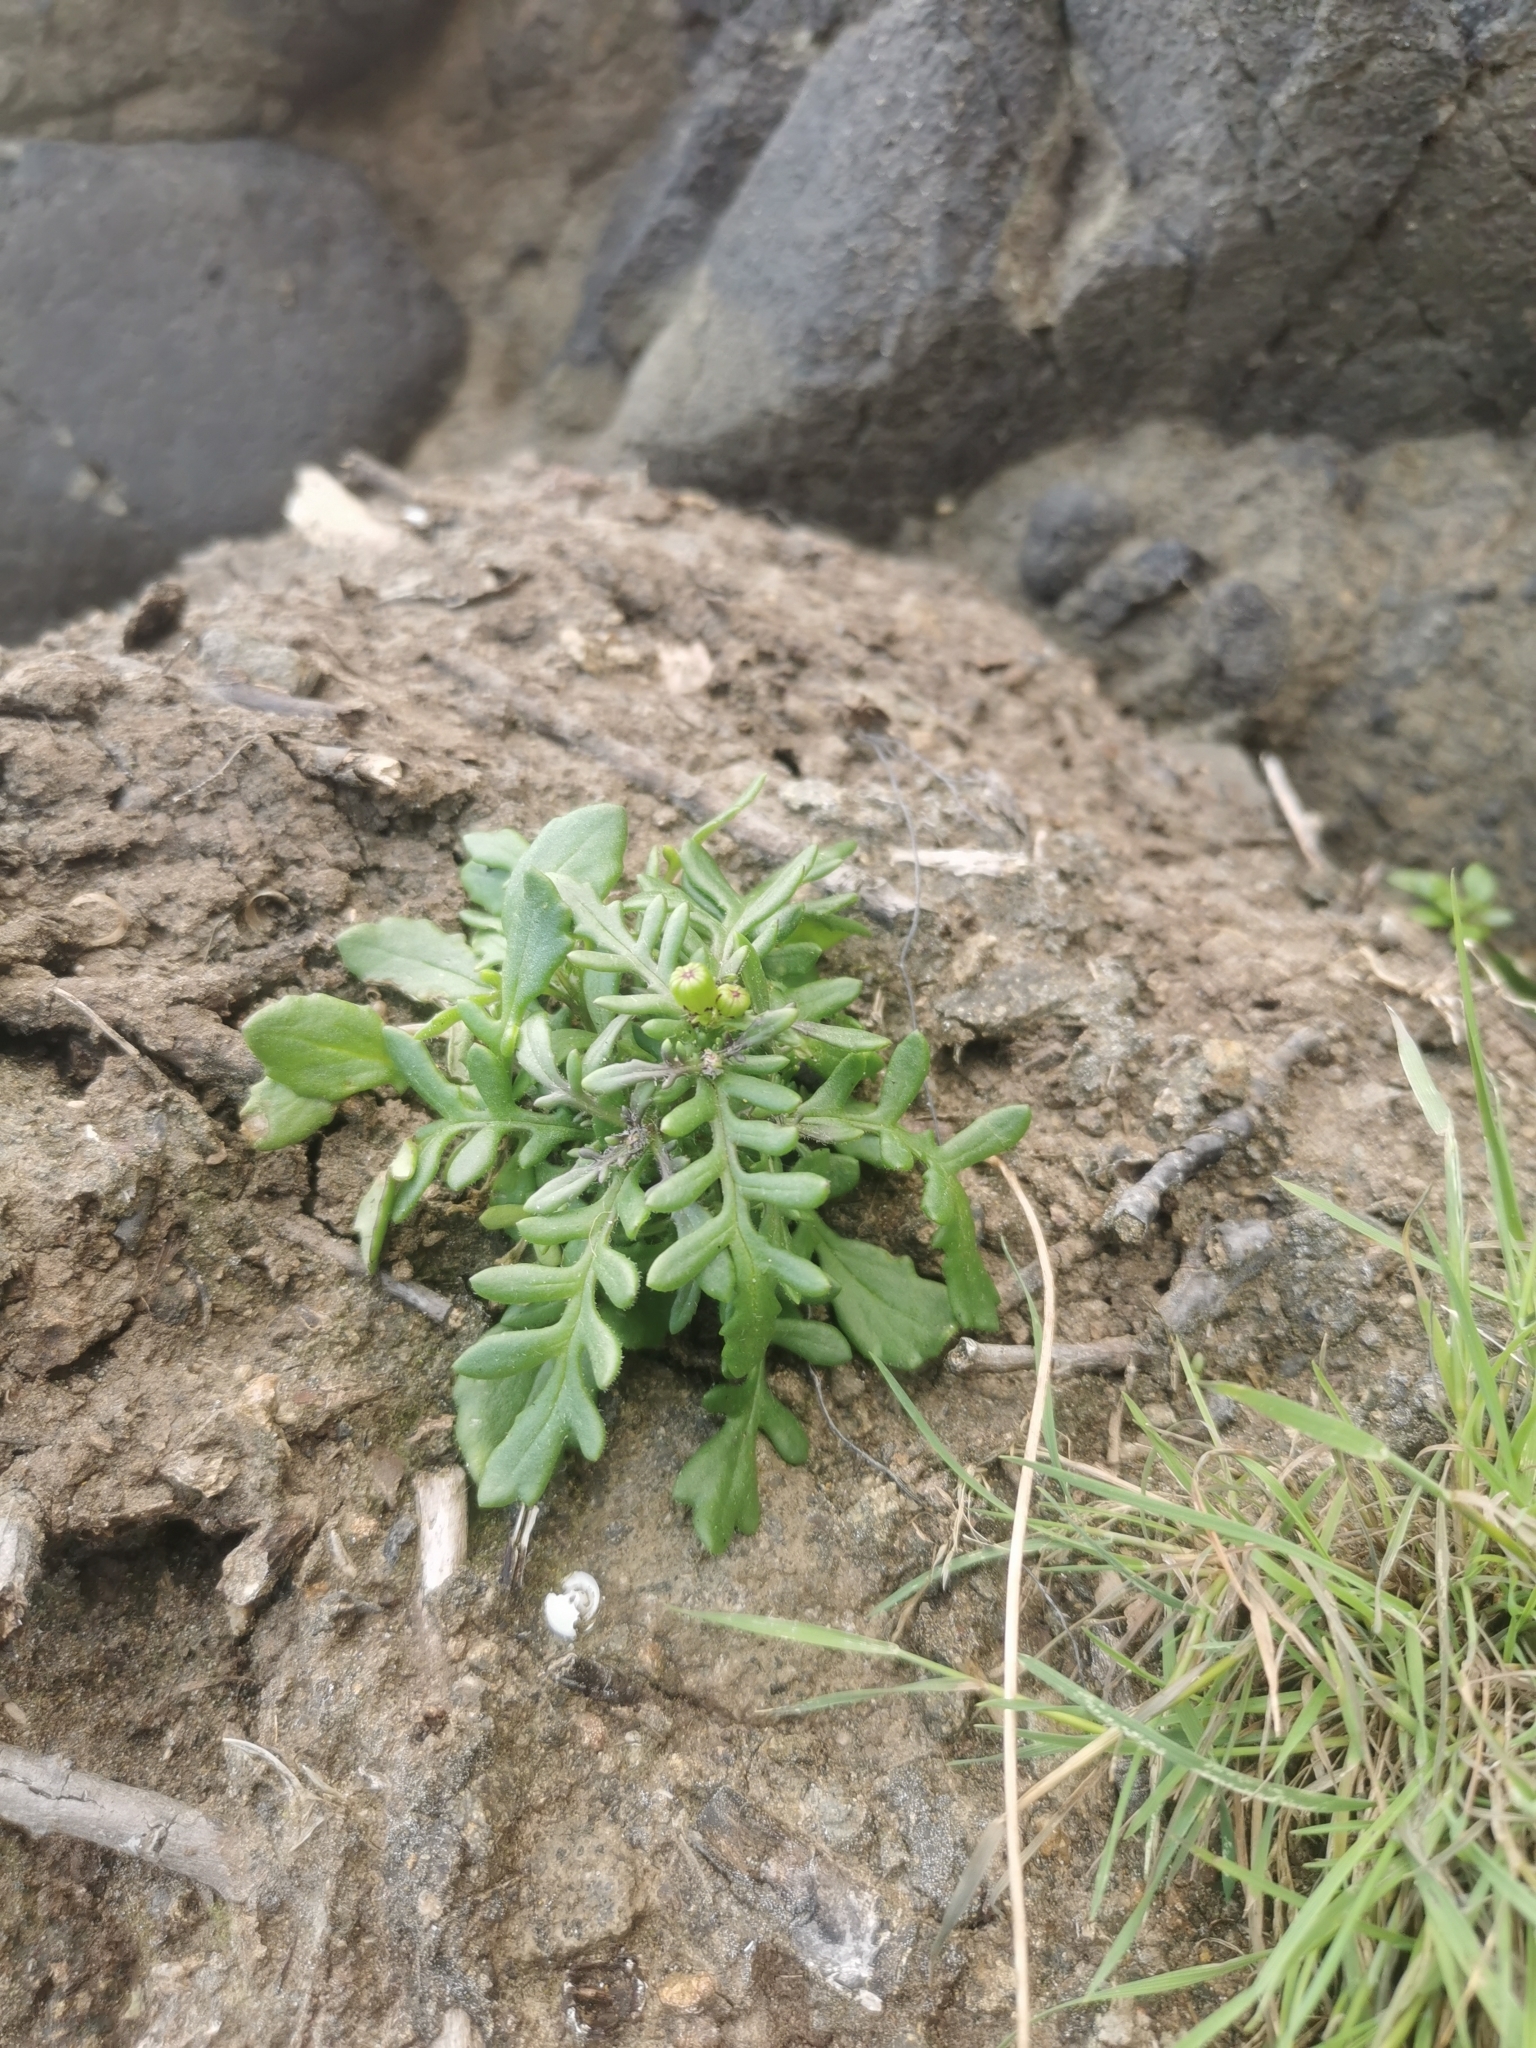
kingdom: Plantae
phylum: Tracheophyta
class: Magnoliopsida
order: Asterales
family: Asteraceae
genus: Senecio
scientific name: Senecio lautus
